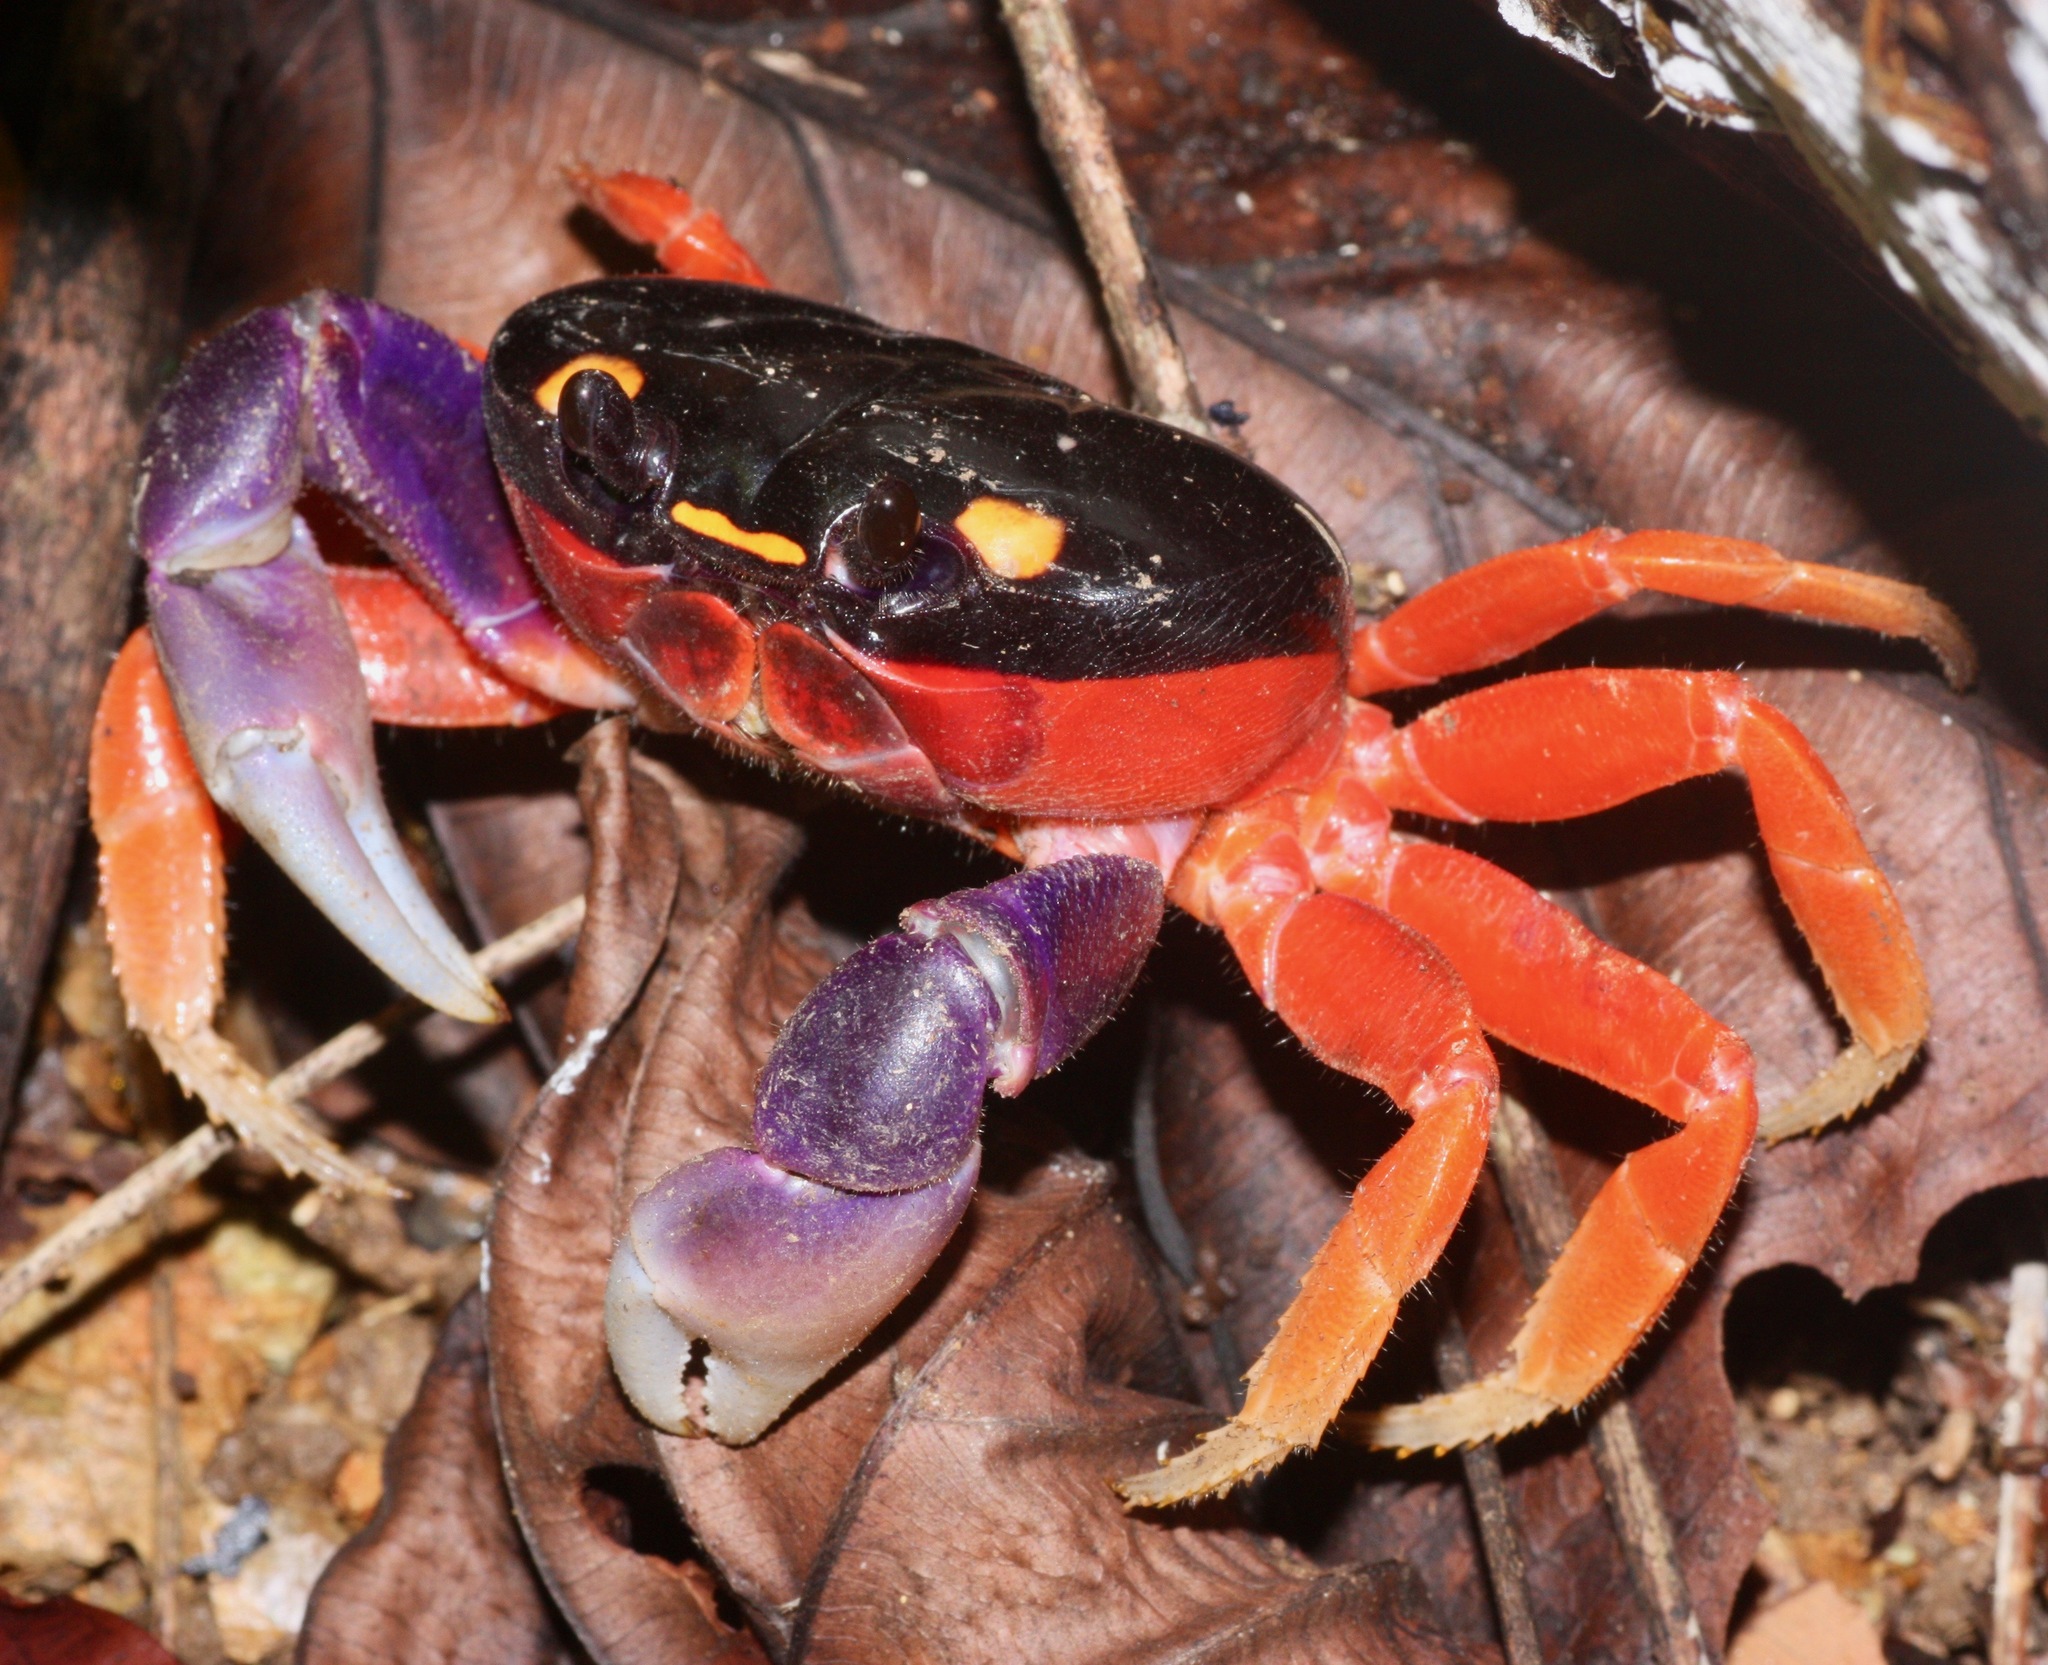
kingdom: Animalia
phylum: Arthropoda
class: Malacostraca
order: Decapoda
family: Gecarcinidae
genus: Gecarcinus
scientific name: Gecarcinus quadratus
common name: Halloween crab
